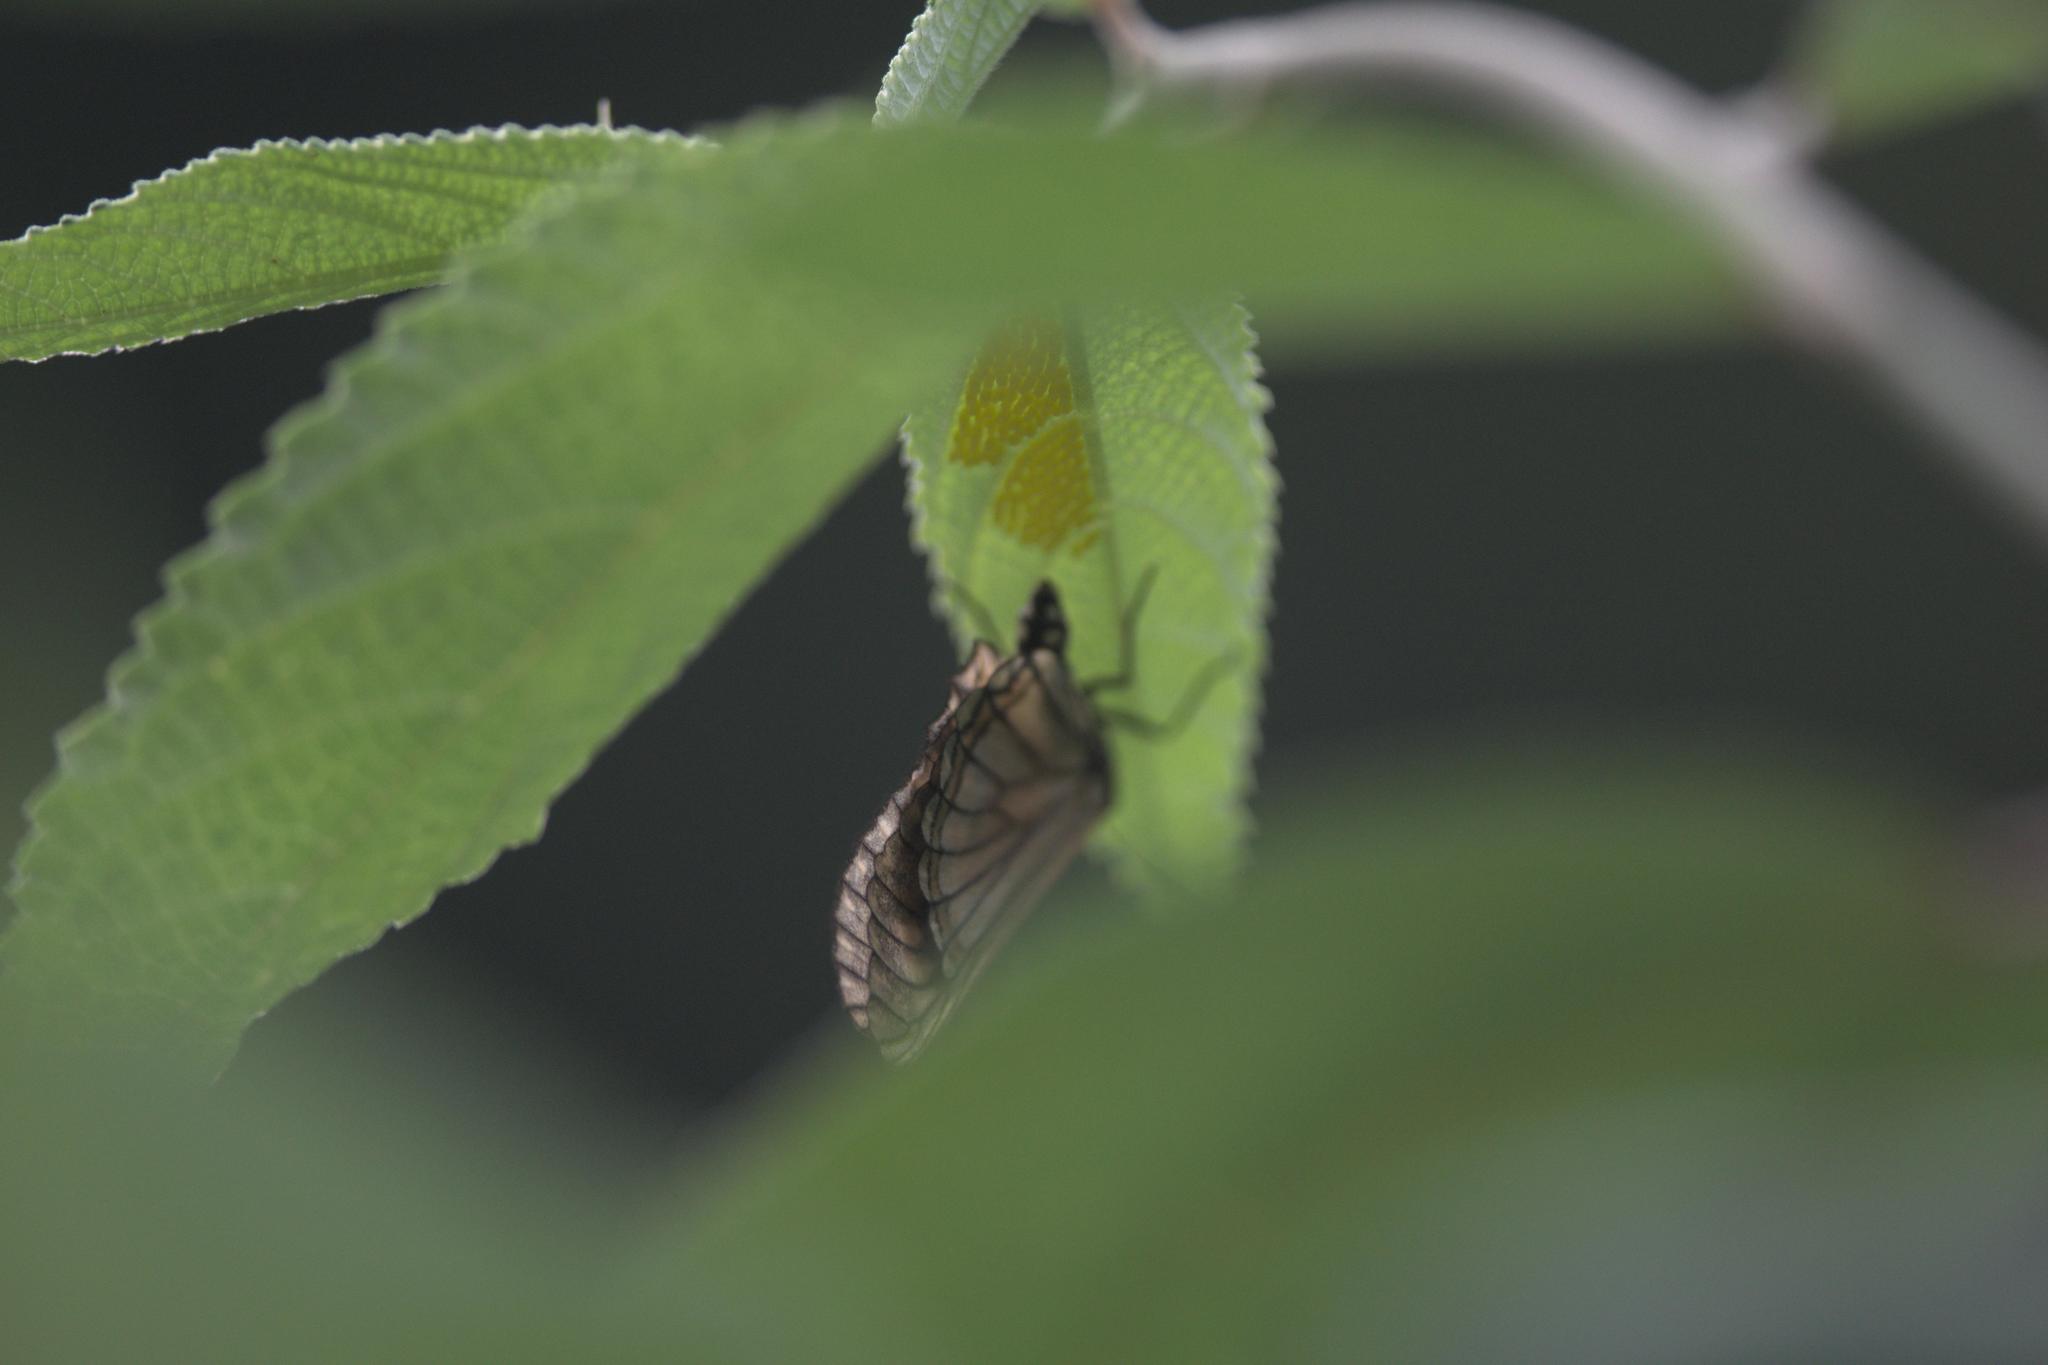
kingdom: Animalia
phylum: Arthropoda
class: Insecta
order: Lepidoptera
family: Nymphalidae
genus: Acraea
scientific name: Acraea Telchinia issoria
